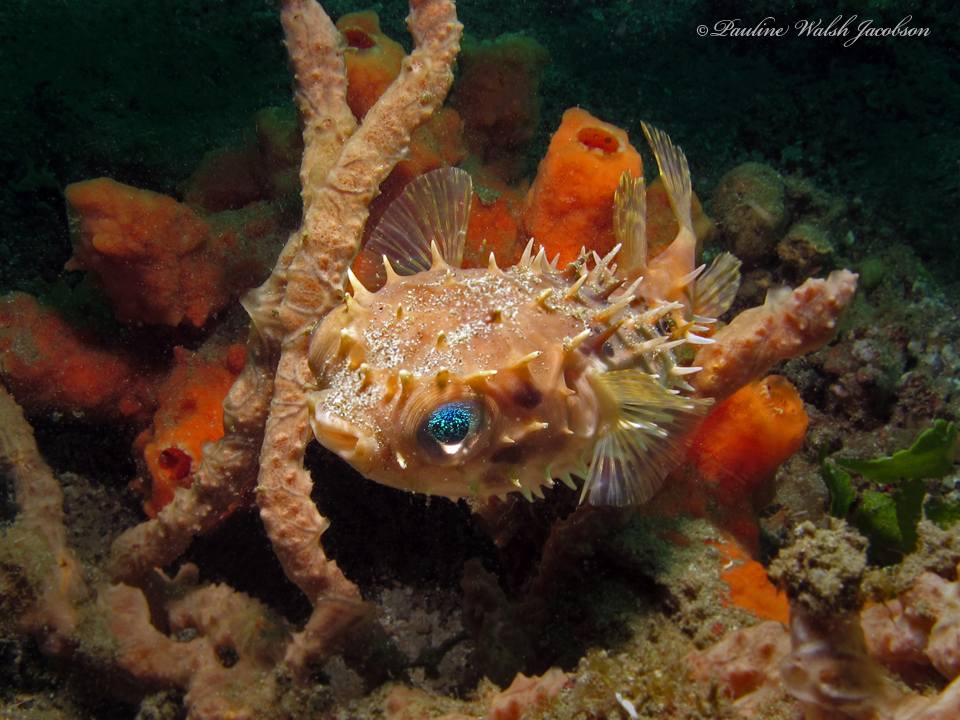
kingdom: Animalia
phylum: Chordata
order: Tetraodontiformes
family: Diodontidae
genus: Cyclichthys
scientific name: Cyclichthys orbicularis
